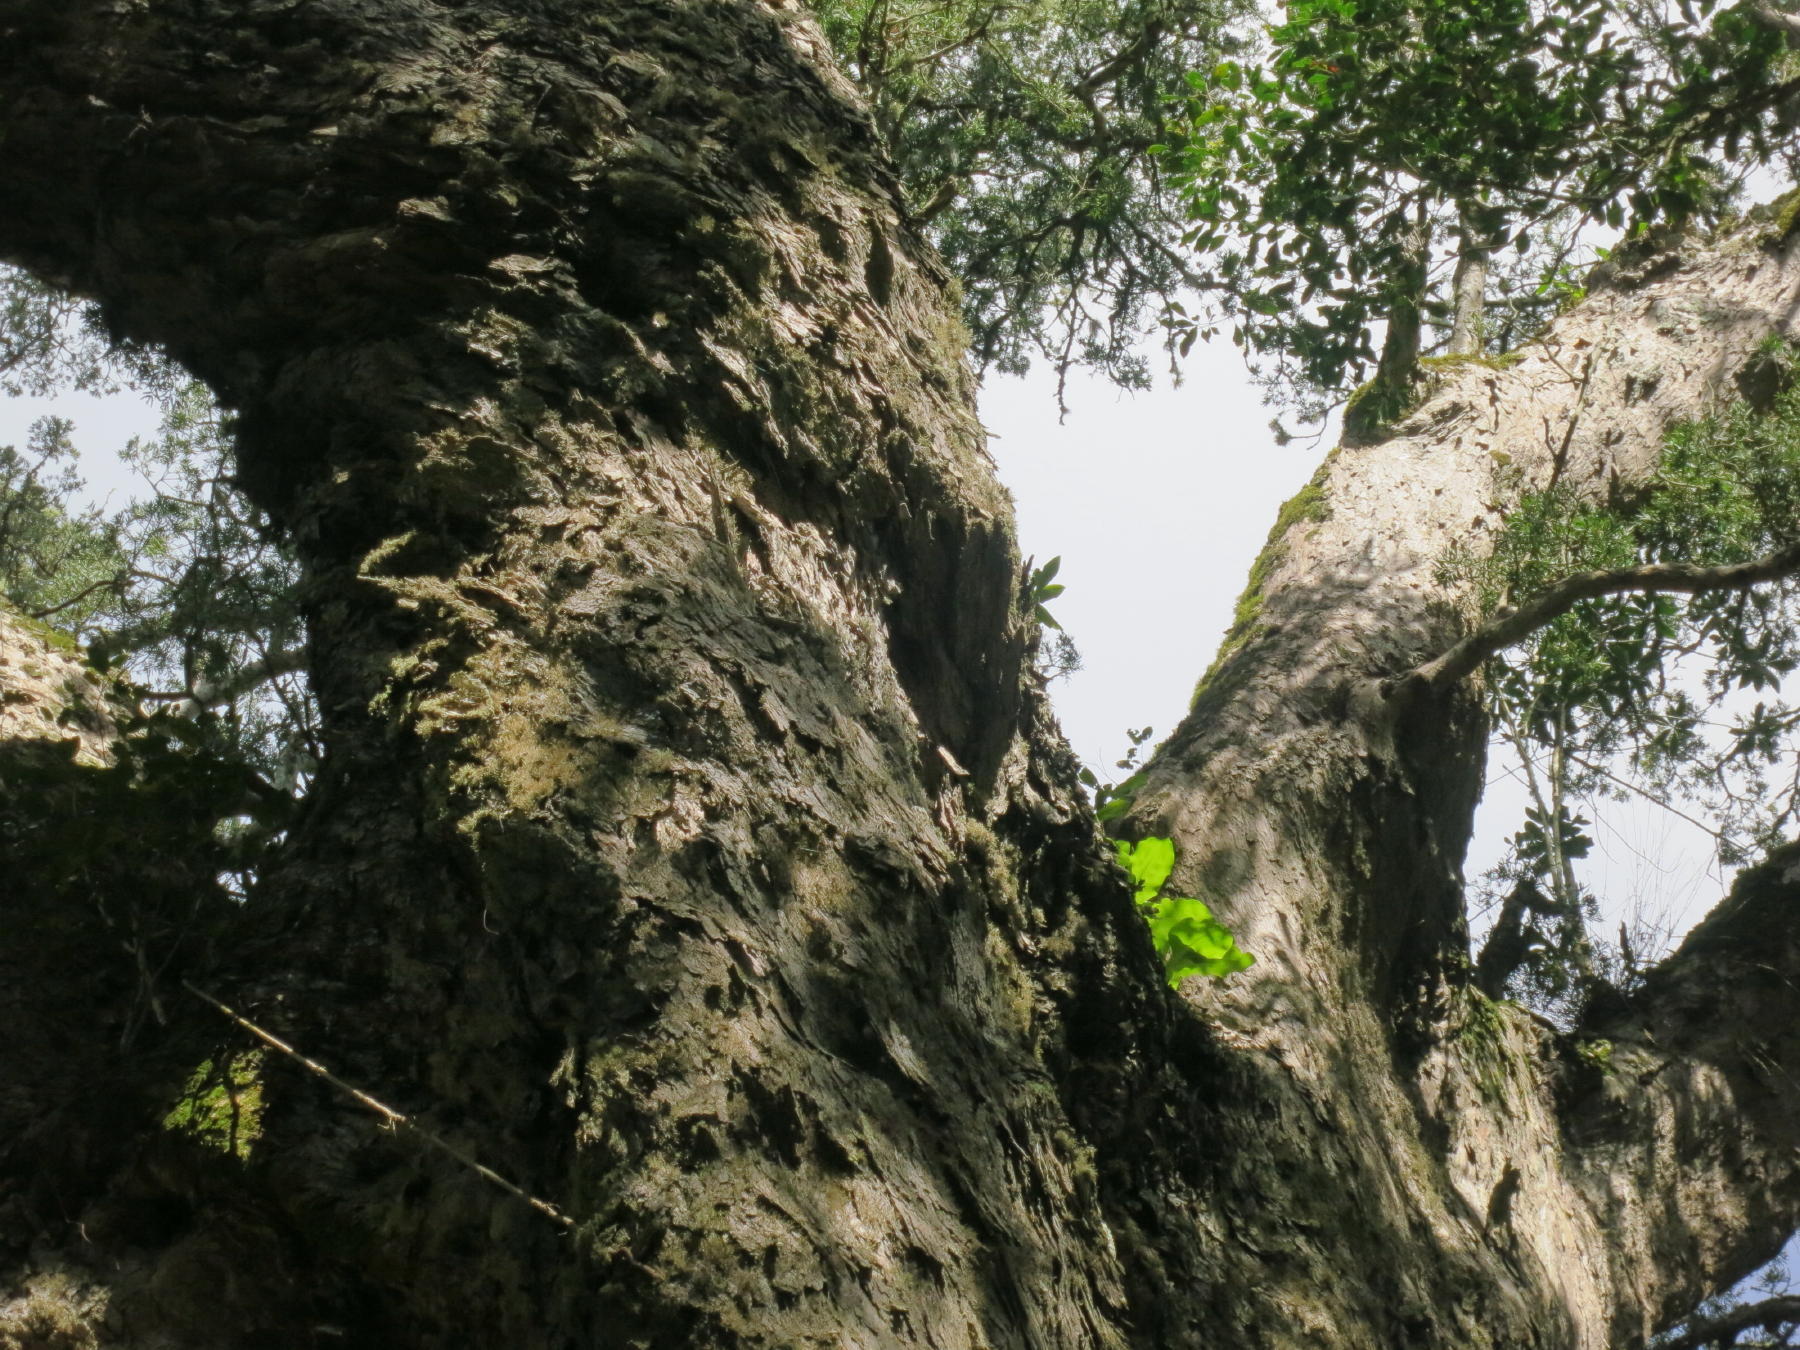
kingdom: Plantae
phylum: Tracheophyta
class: Pinopsida
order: Pinales
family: Podocarpaceae
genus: Afrocarpus
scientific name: Afrocarpus falcatus
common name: Bastard yellowwood
